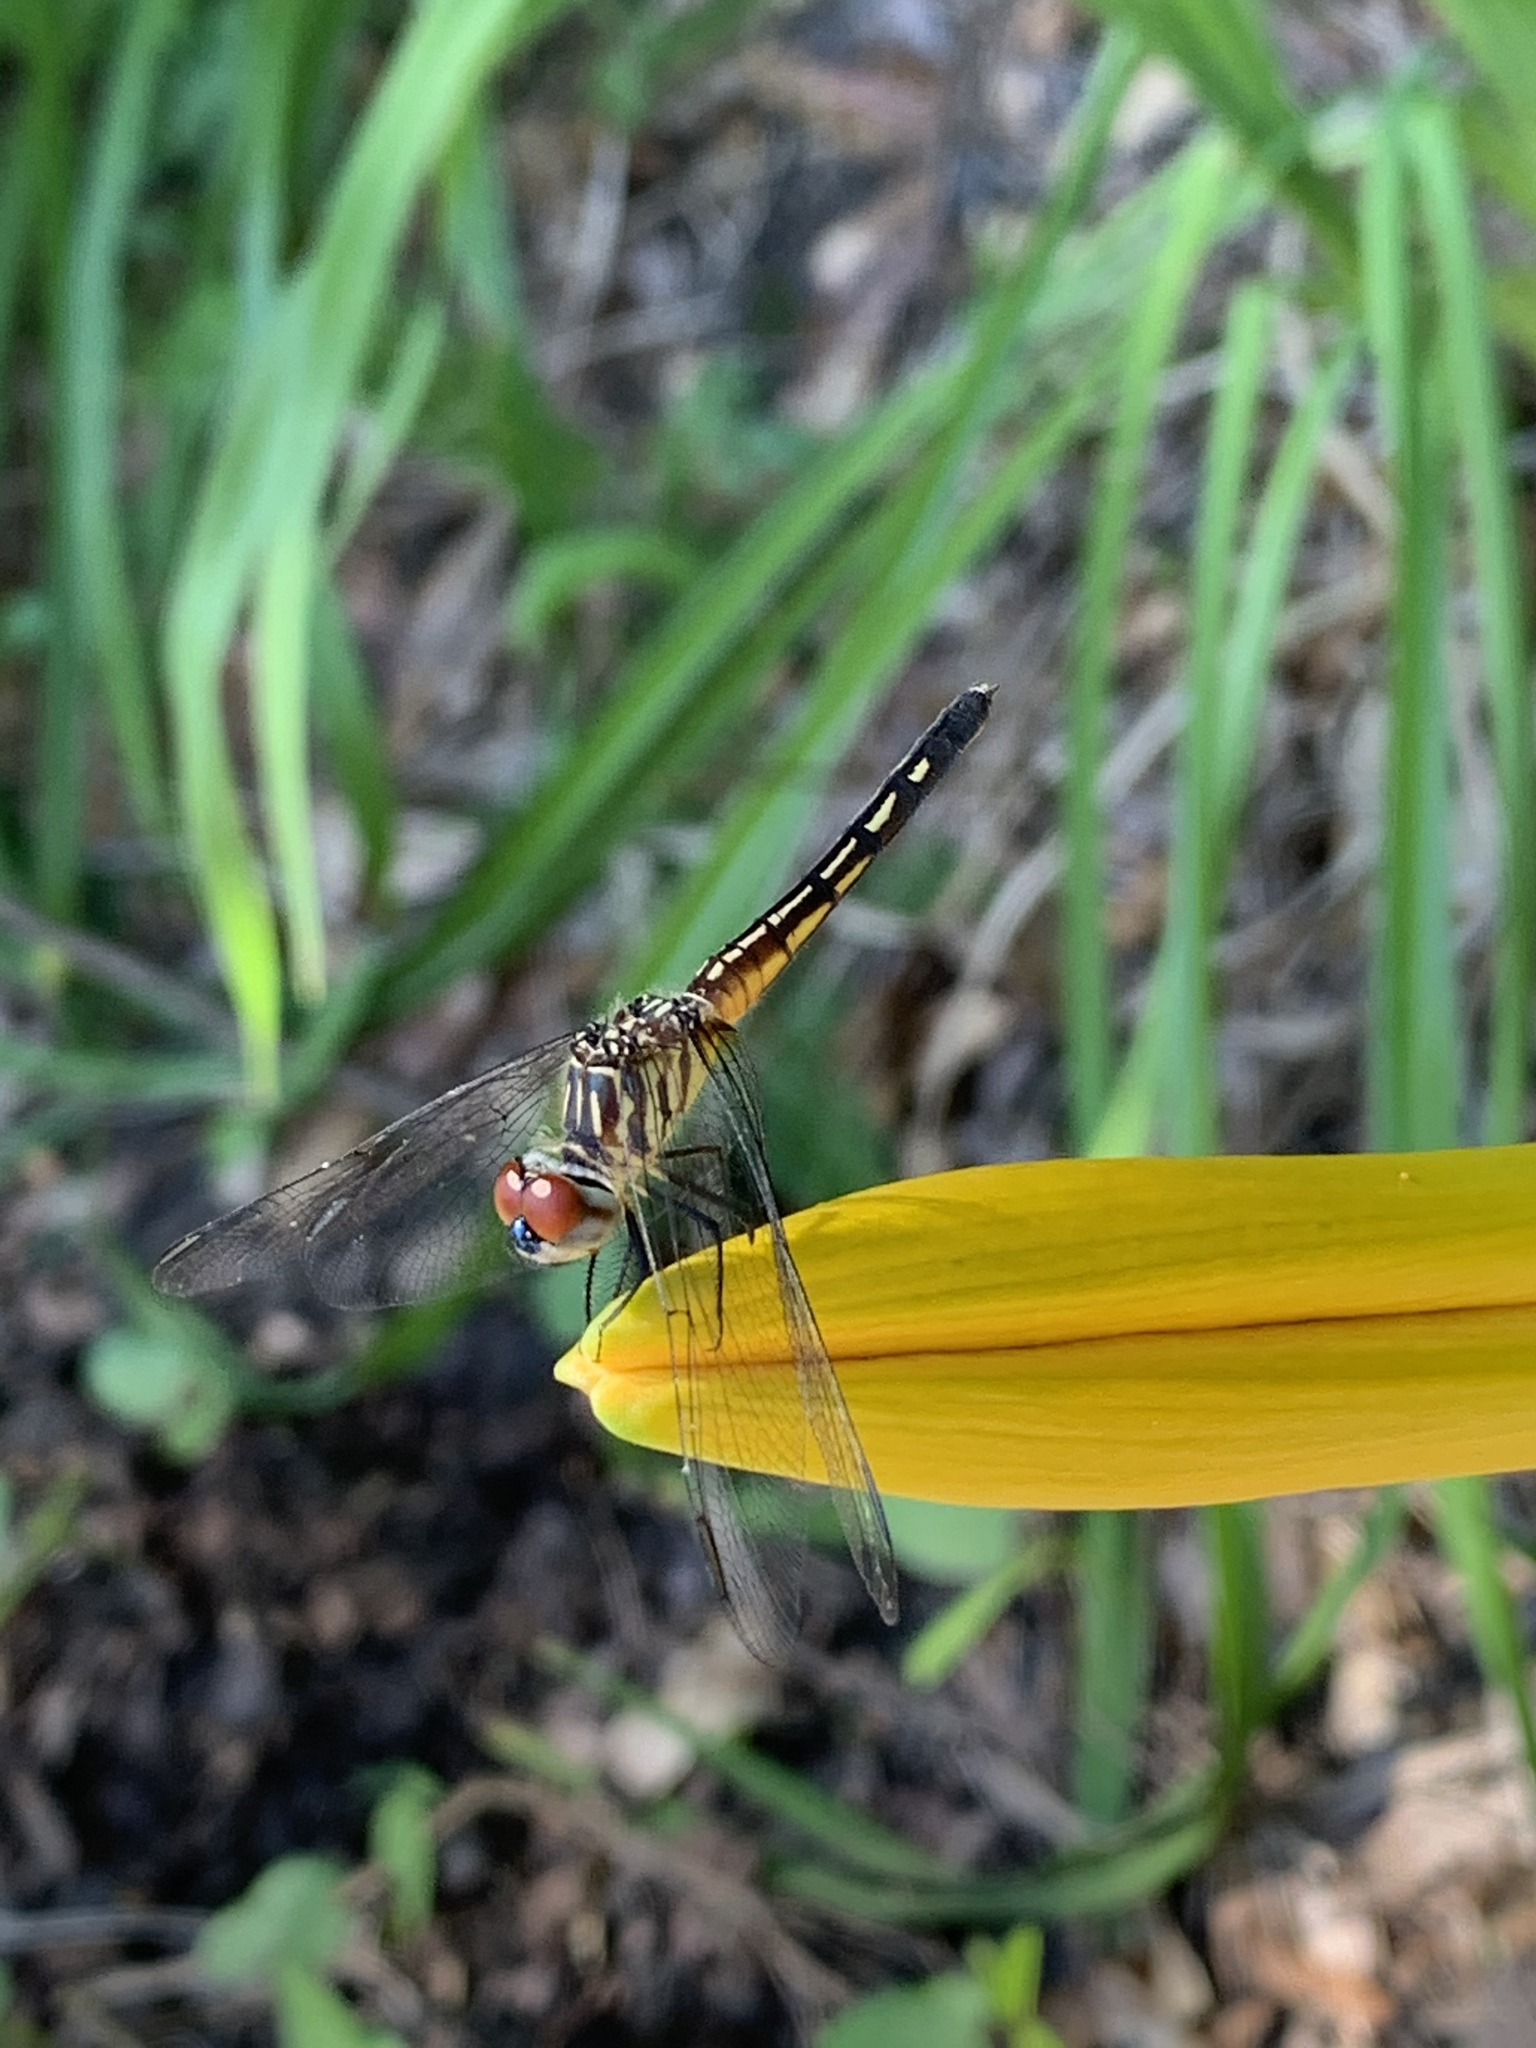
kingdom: Animalia
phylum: Arthropoda
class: Insecta
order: Odonata
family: Libellulidae
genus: Pachydiplax
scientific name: Pachydiplax longipennis
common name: Blue dasher
